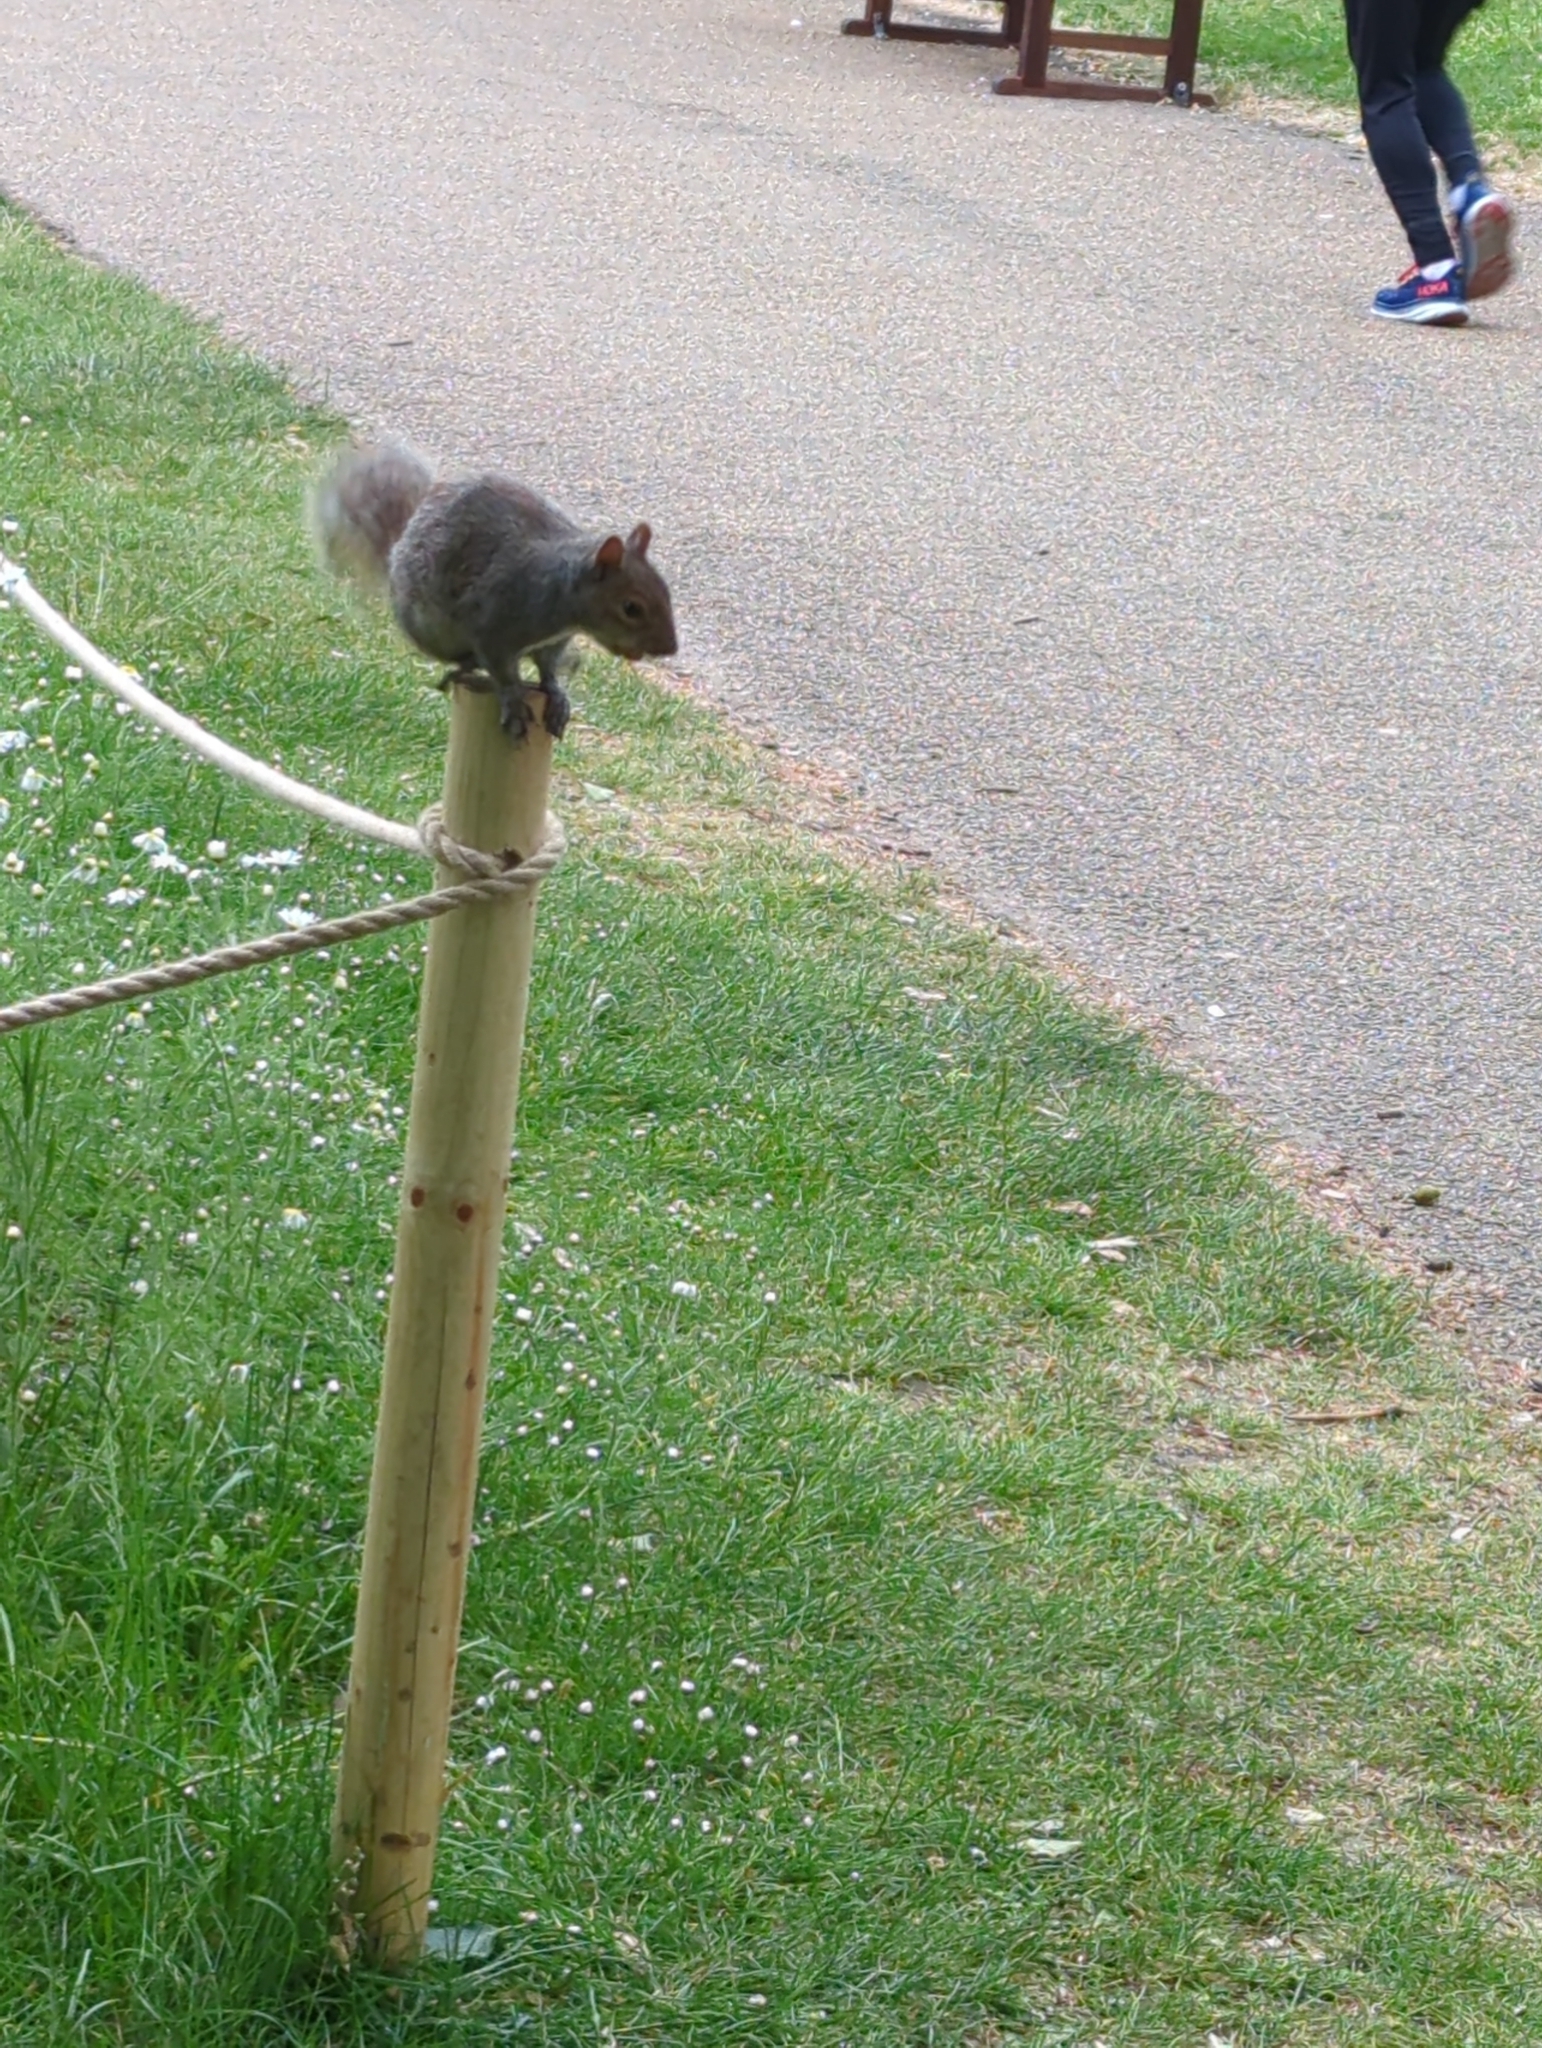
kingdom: Animalia
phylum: Chordata
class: Mammalia
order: Rodentia
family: Sciuridae
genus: Sciurus
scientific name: Sciurus carolinensis
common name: Eastern gray squirrel
